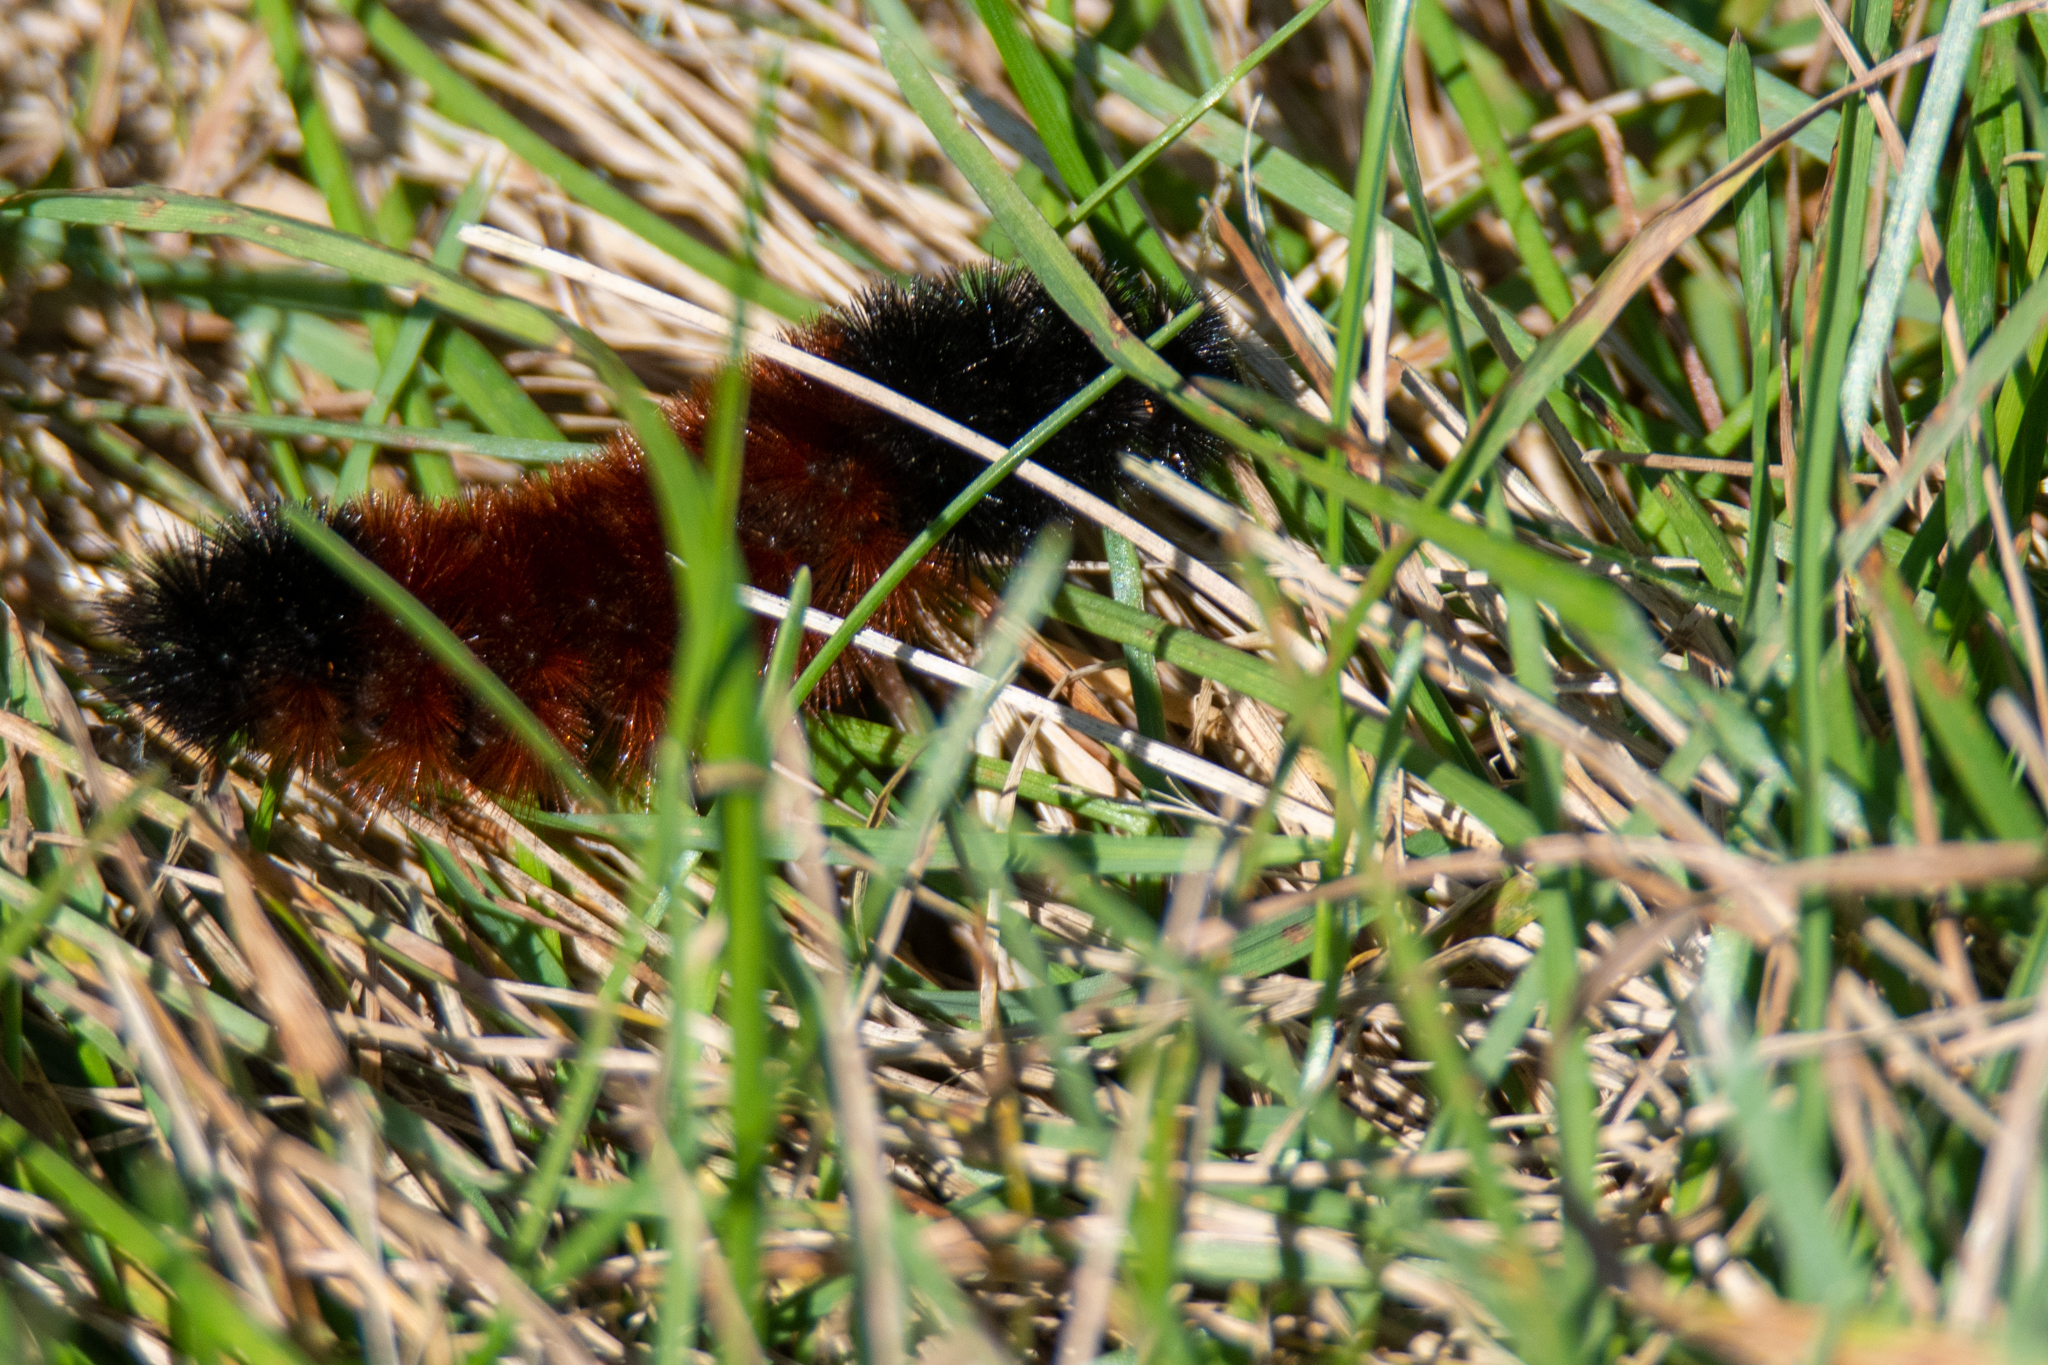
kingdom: Animalia
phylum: Arthropoda
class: Insecta
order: Lepidoptera
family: Erebidae
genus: Pyrrharctia
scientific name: Pyrrharctia isabella
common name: Isabella tiger moth
